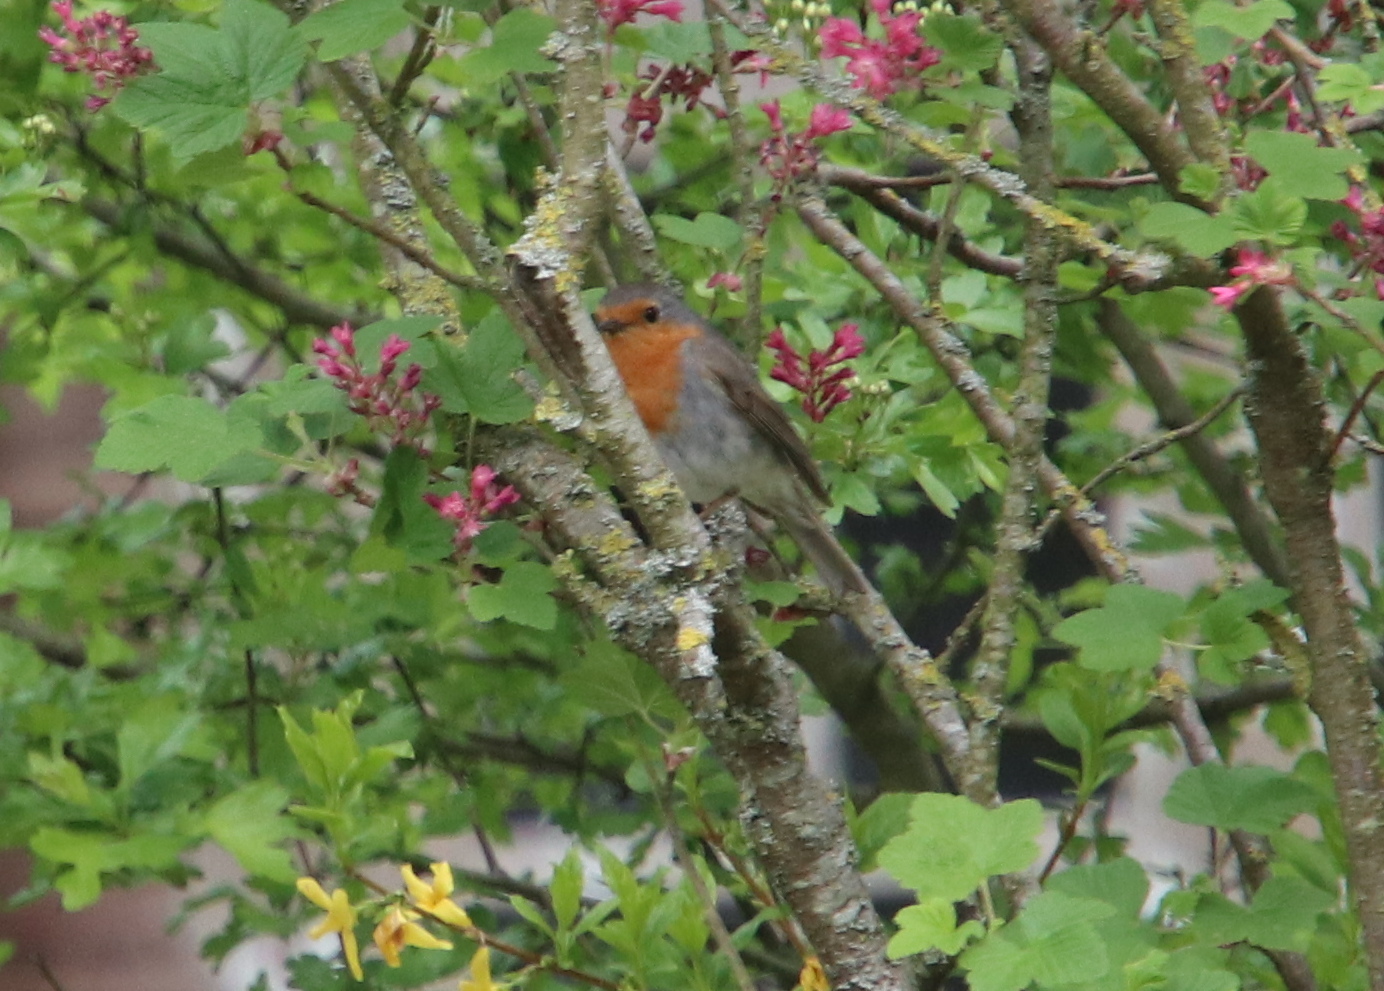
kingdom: Animalia
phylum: Chordata
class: Aves
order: Passeriformes
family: Muscicapidae
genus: Erithacus
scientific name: Erithacus rubecula
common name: European robin
